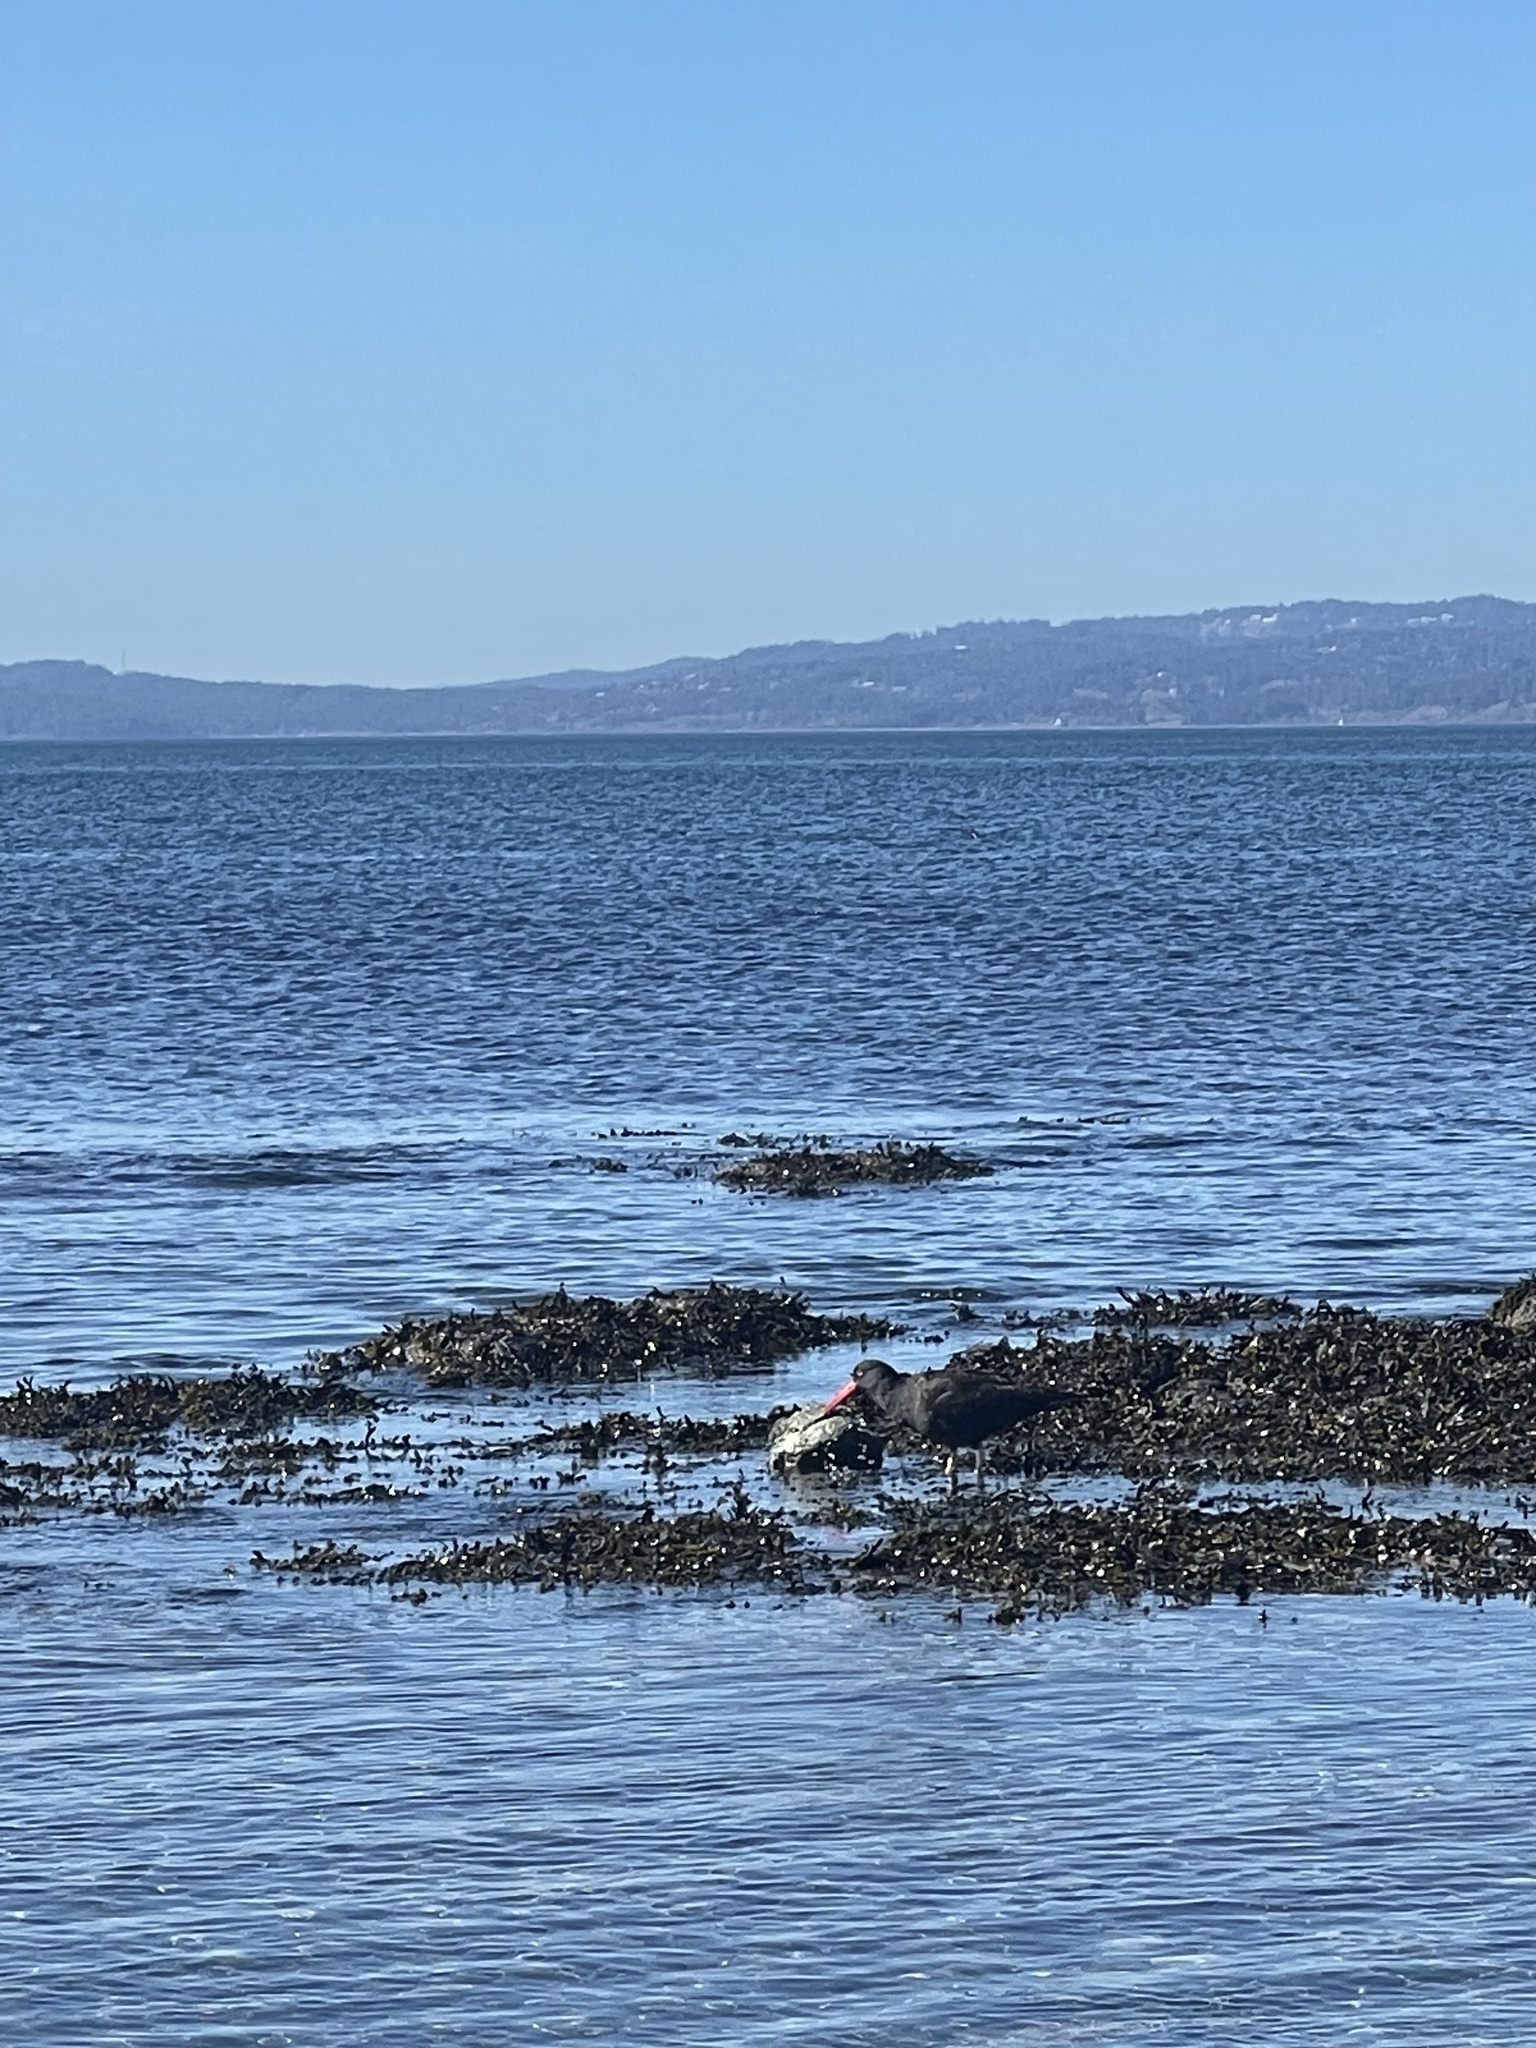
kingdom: Animalia
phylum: Chordata
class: Aves
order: Charadriiformes
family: Haematopodidae
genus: Haematopus
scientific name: Haematopus bachmani
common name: Black oystercatcher
